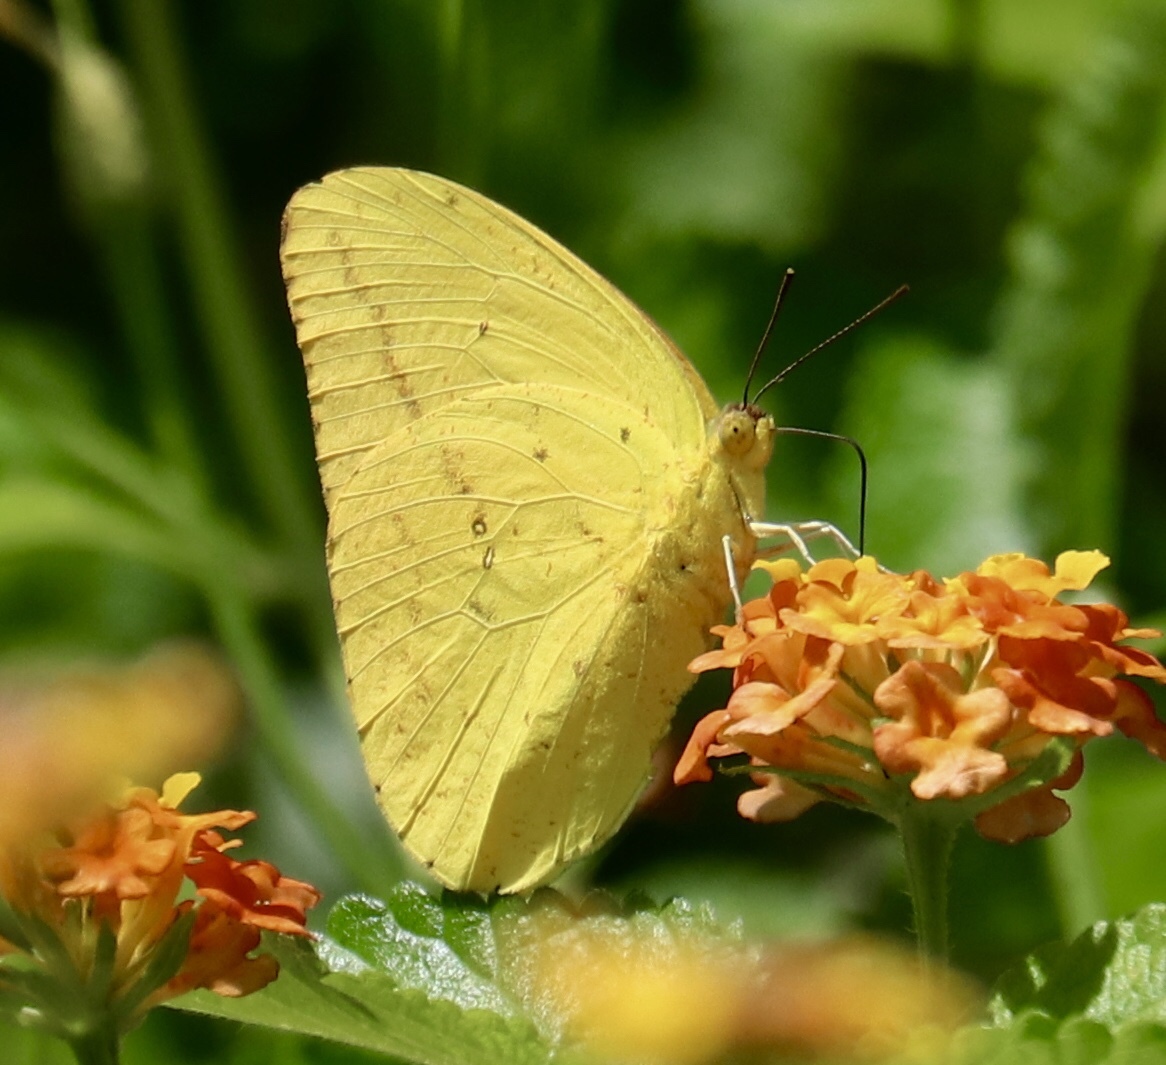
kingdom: Animalia
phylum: Arthropoda
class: Insecta
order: Lepidoptera
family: Pieridae
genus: Phoebis
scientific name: Phoebis agarithe
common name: Large orange sulphur
